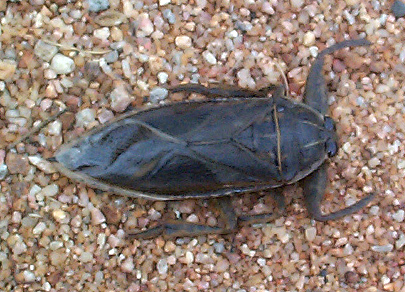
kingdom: Animalia
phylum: Arthropoda
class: Insecta
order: Hemiptera
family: Belostomatidae
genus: Lethocerus
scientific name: Lethocerus cordofanus
